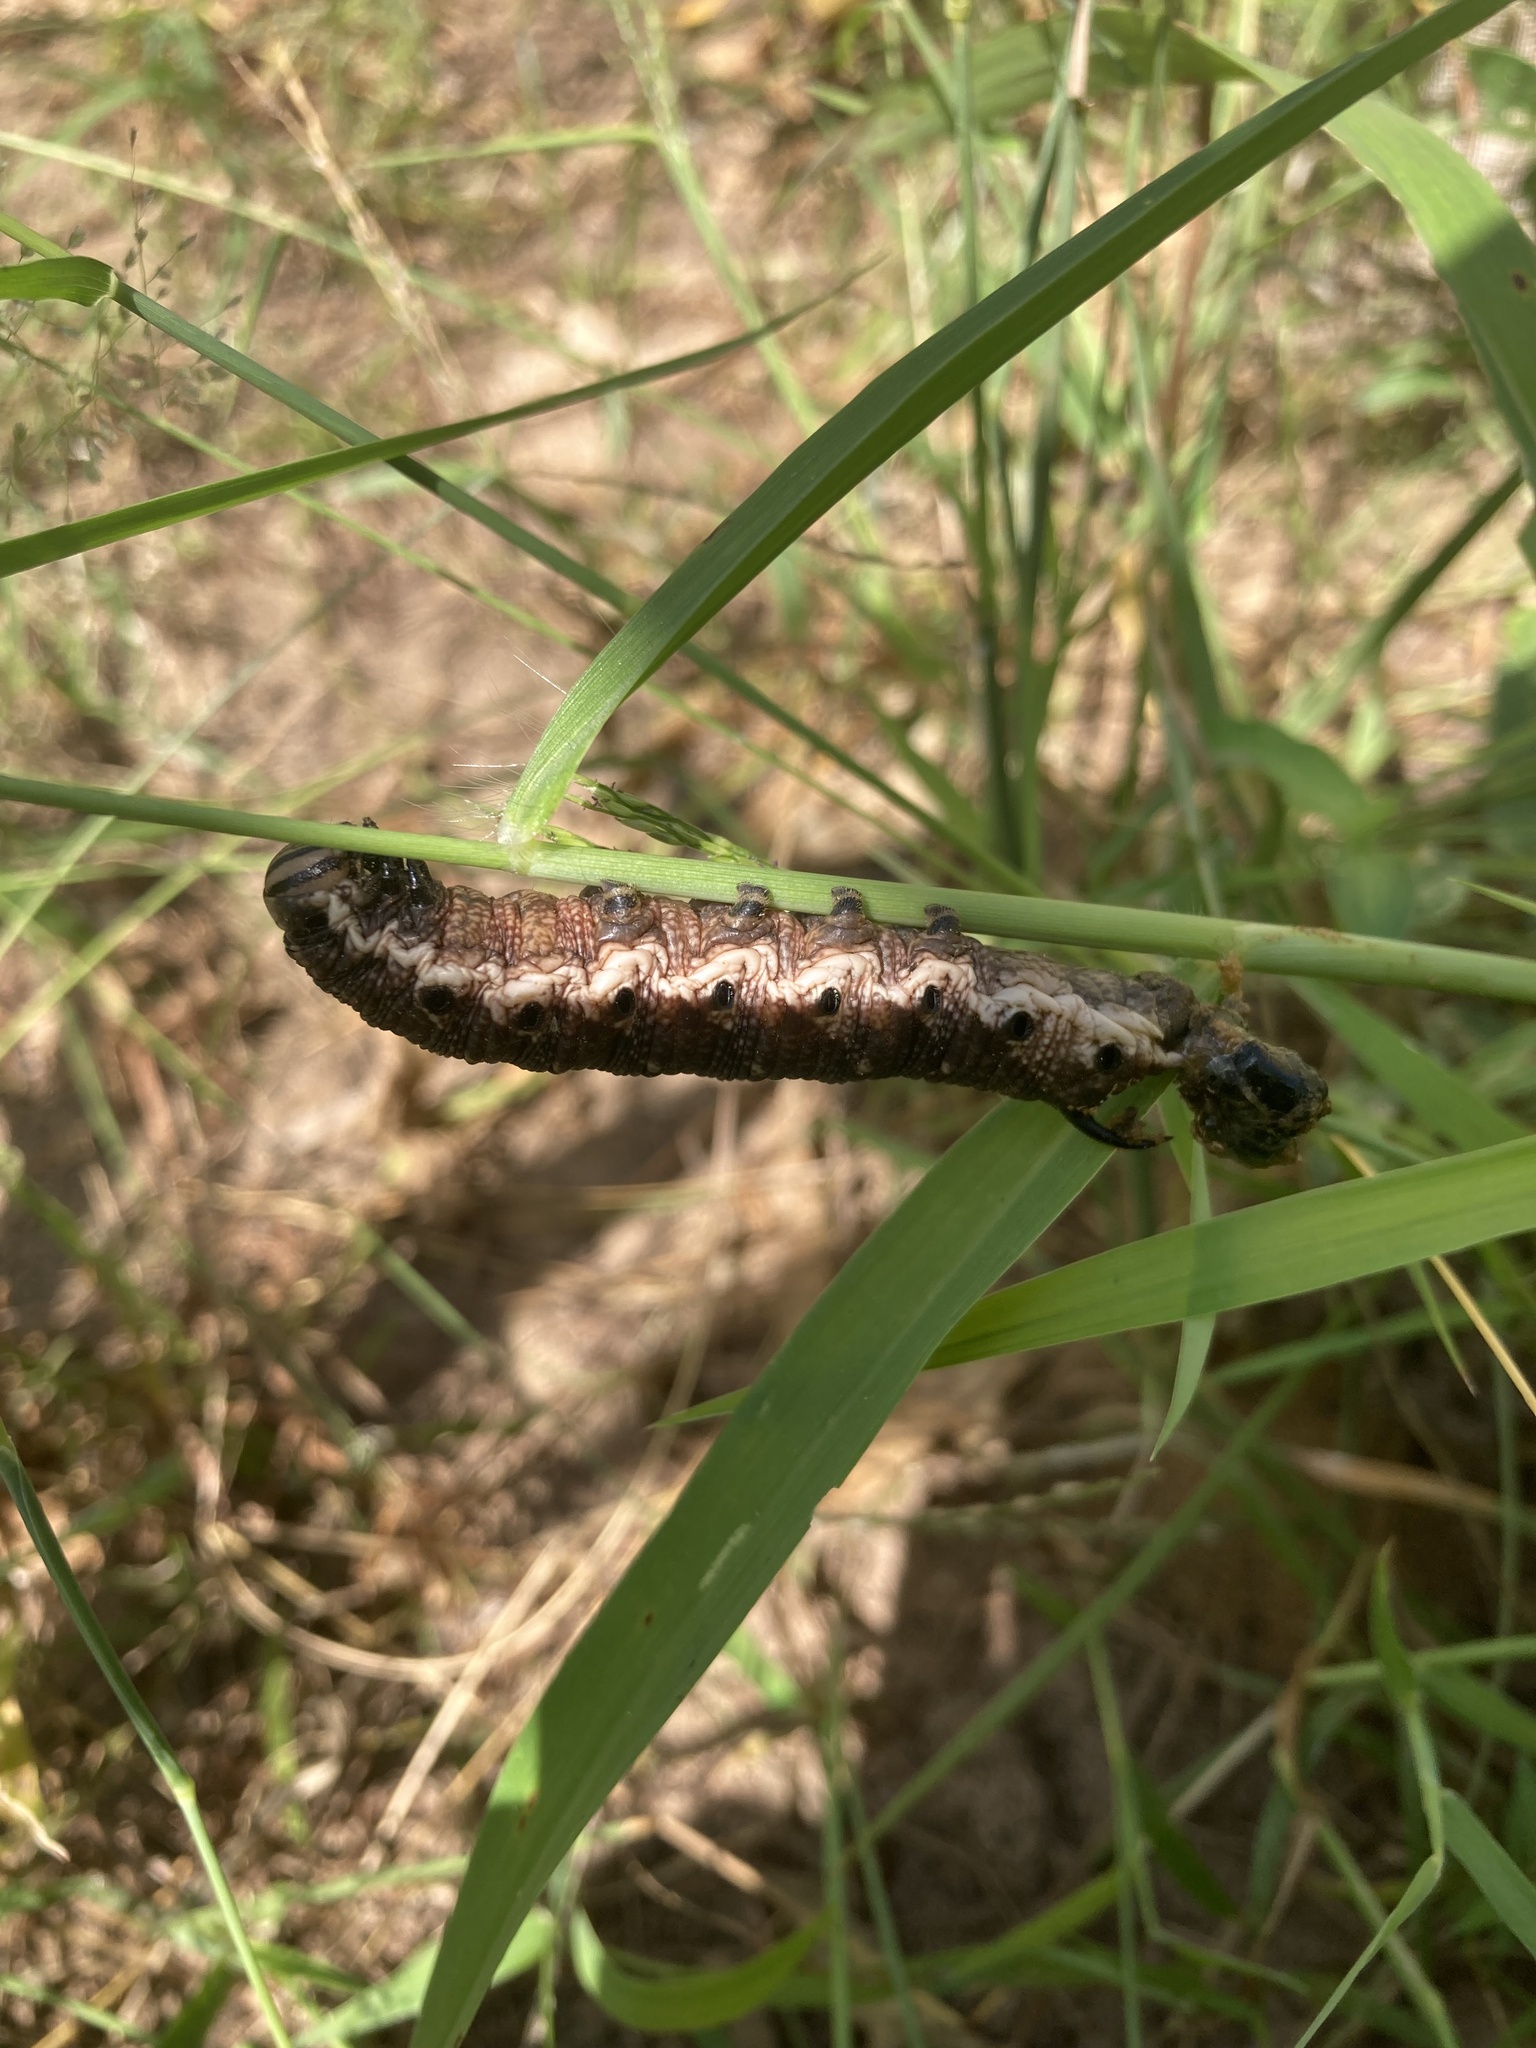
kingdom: Animalia
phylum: Arthropoda
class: Insecta
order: Lepidoptera
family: Sphingidae
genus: Agrius
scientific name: Agrius convolvuli
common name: Convolvulus hawkmoth
